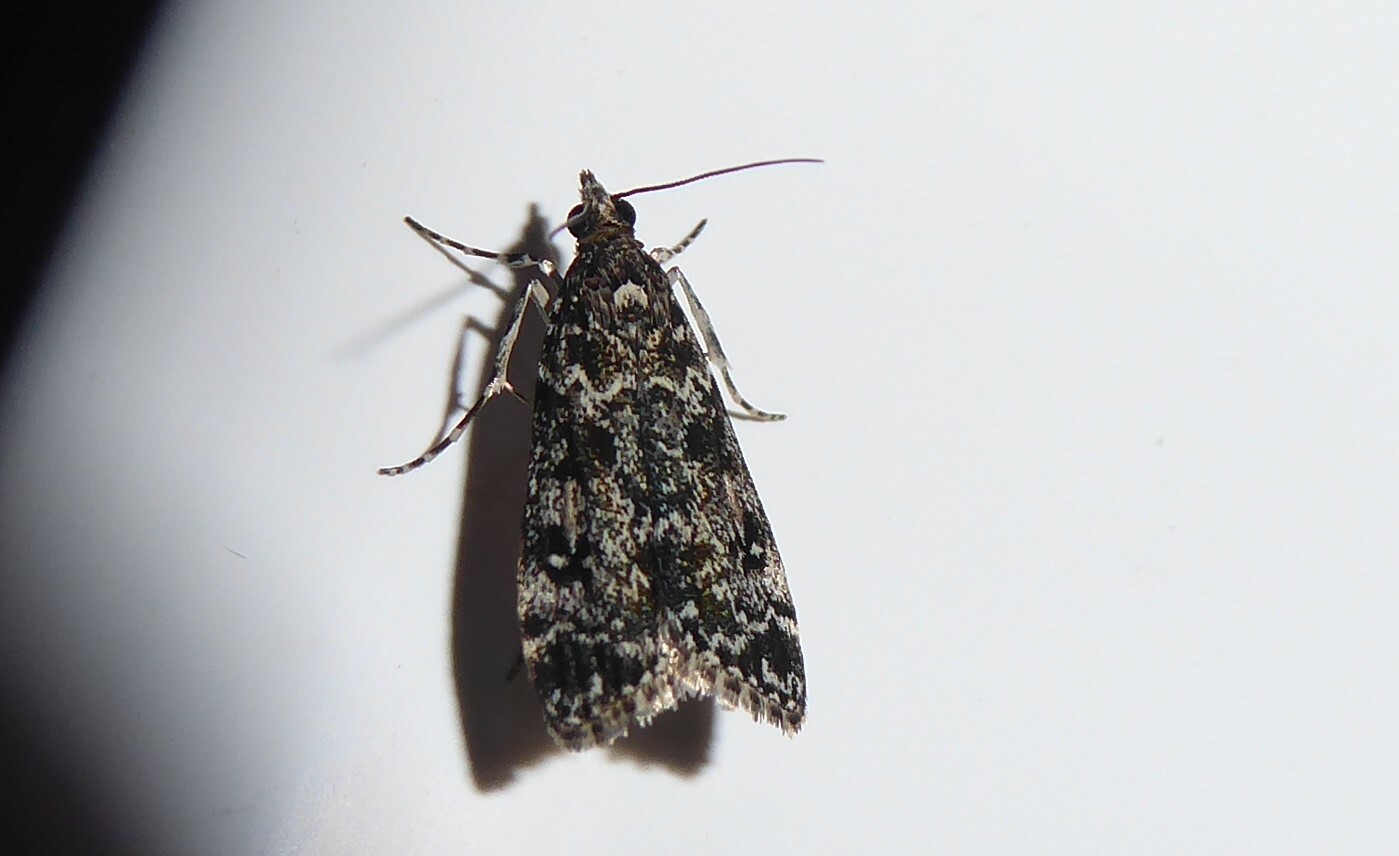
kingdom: Animalia
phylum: Arthropoda
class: Insecta
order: Lepidoptera
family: Crambidae
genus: Eudonia
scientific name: Eudonia philerga
